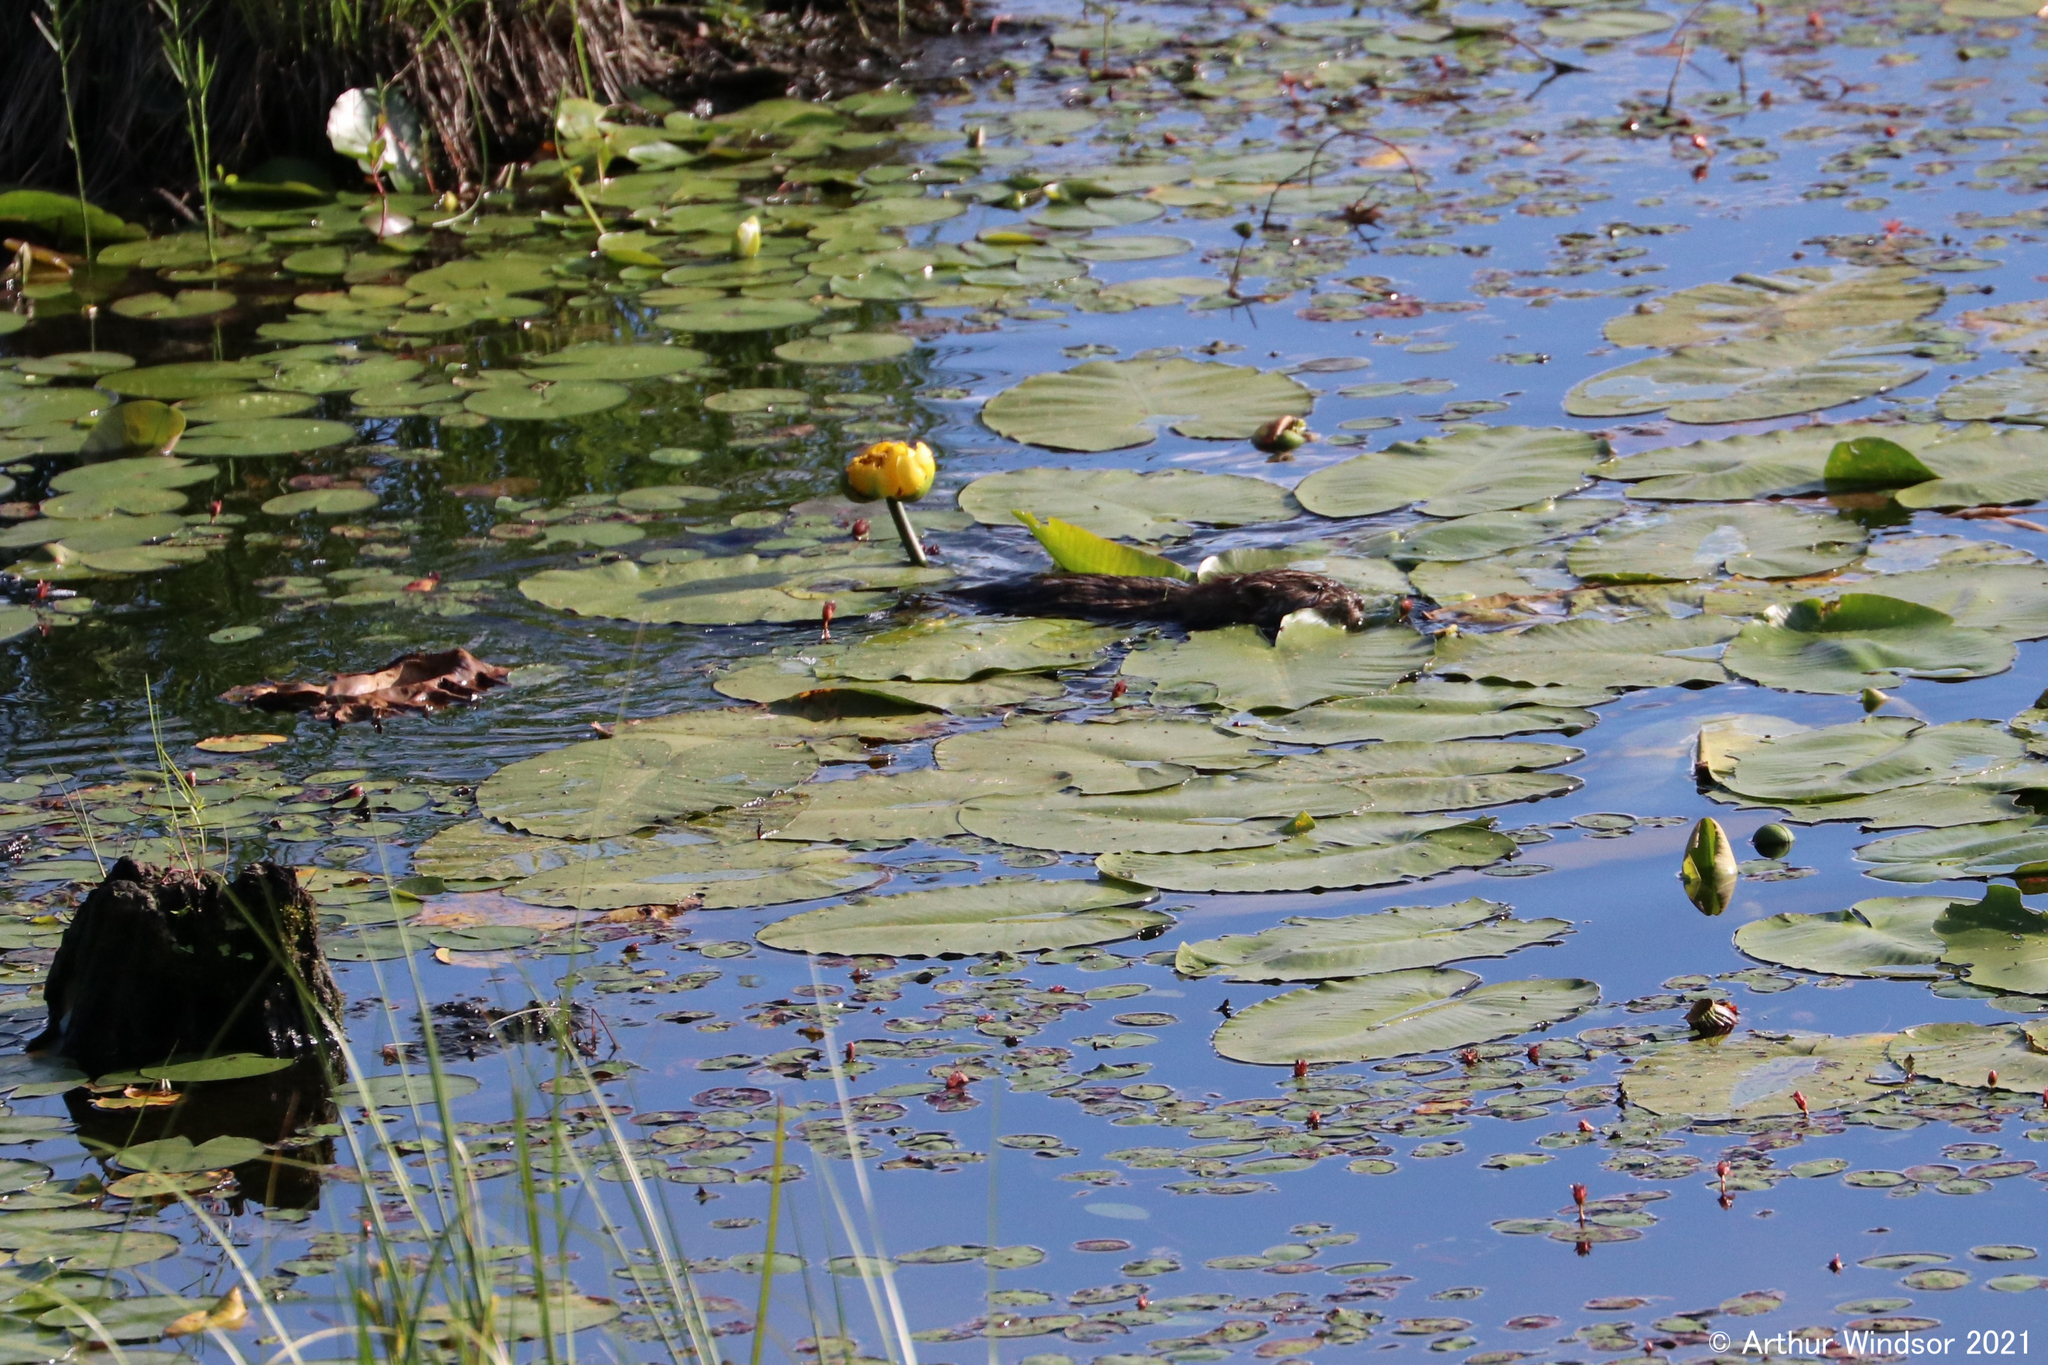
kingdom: Animalia
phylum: Chordata
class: Mammalia
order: Rodentia
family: Cricetidae
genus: Ondatra
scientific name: Ondatra zibethicus
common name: Muskrat
